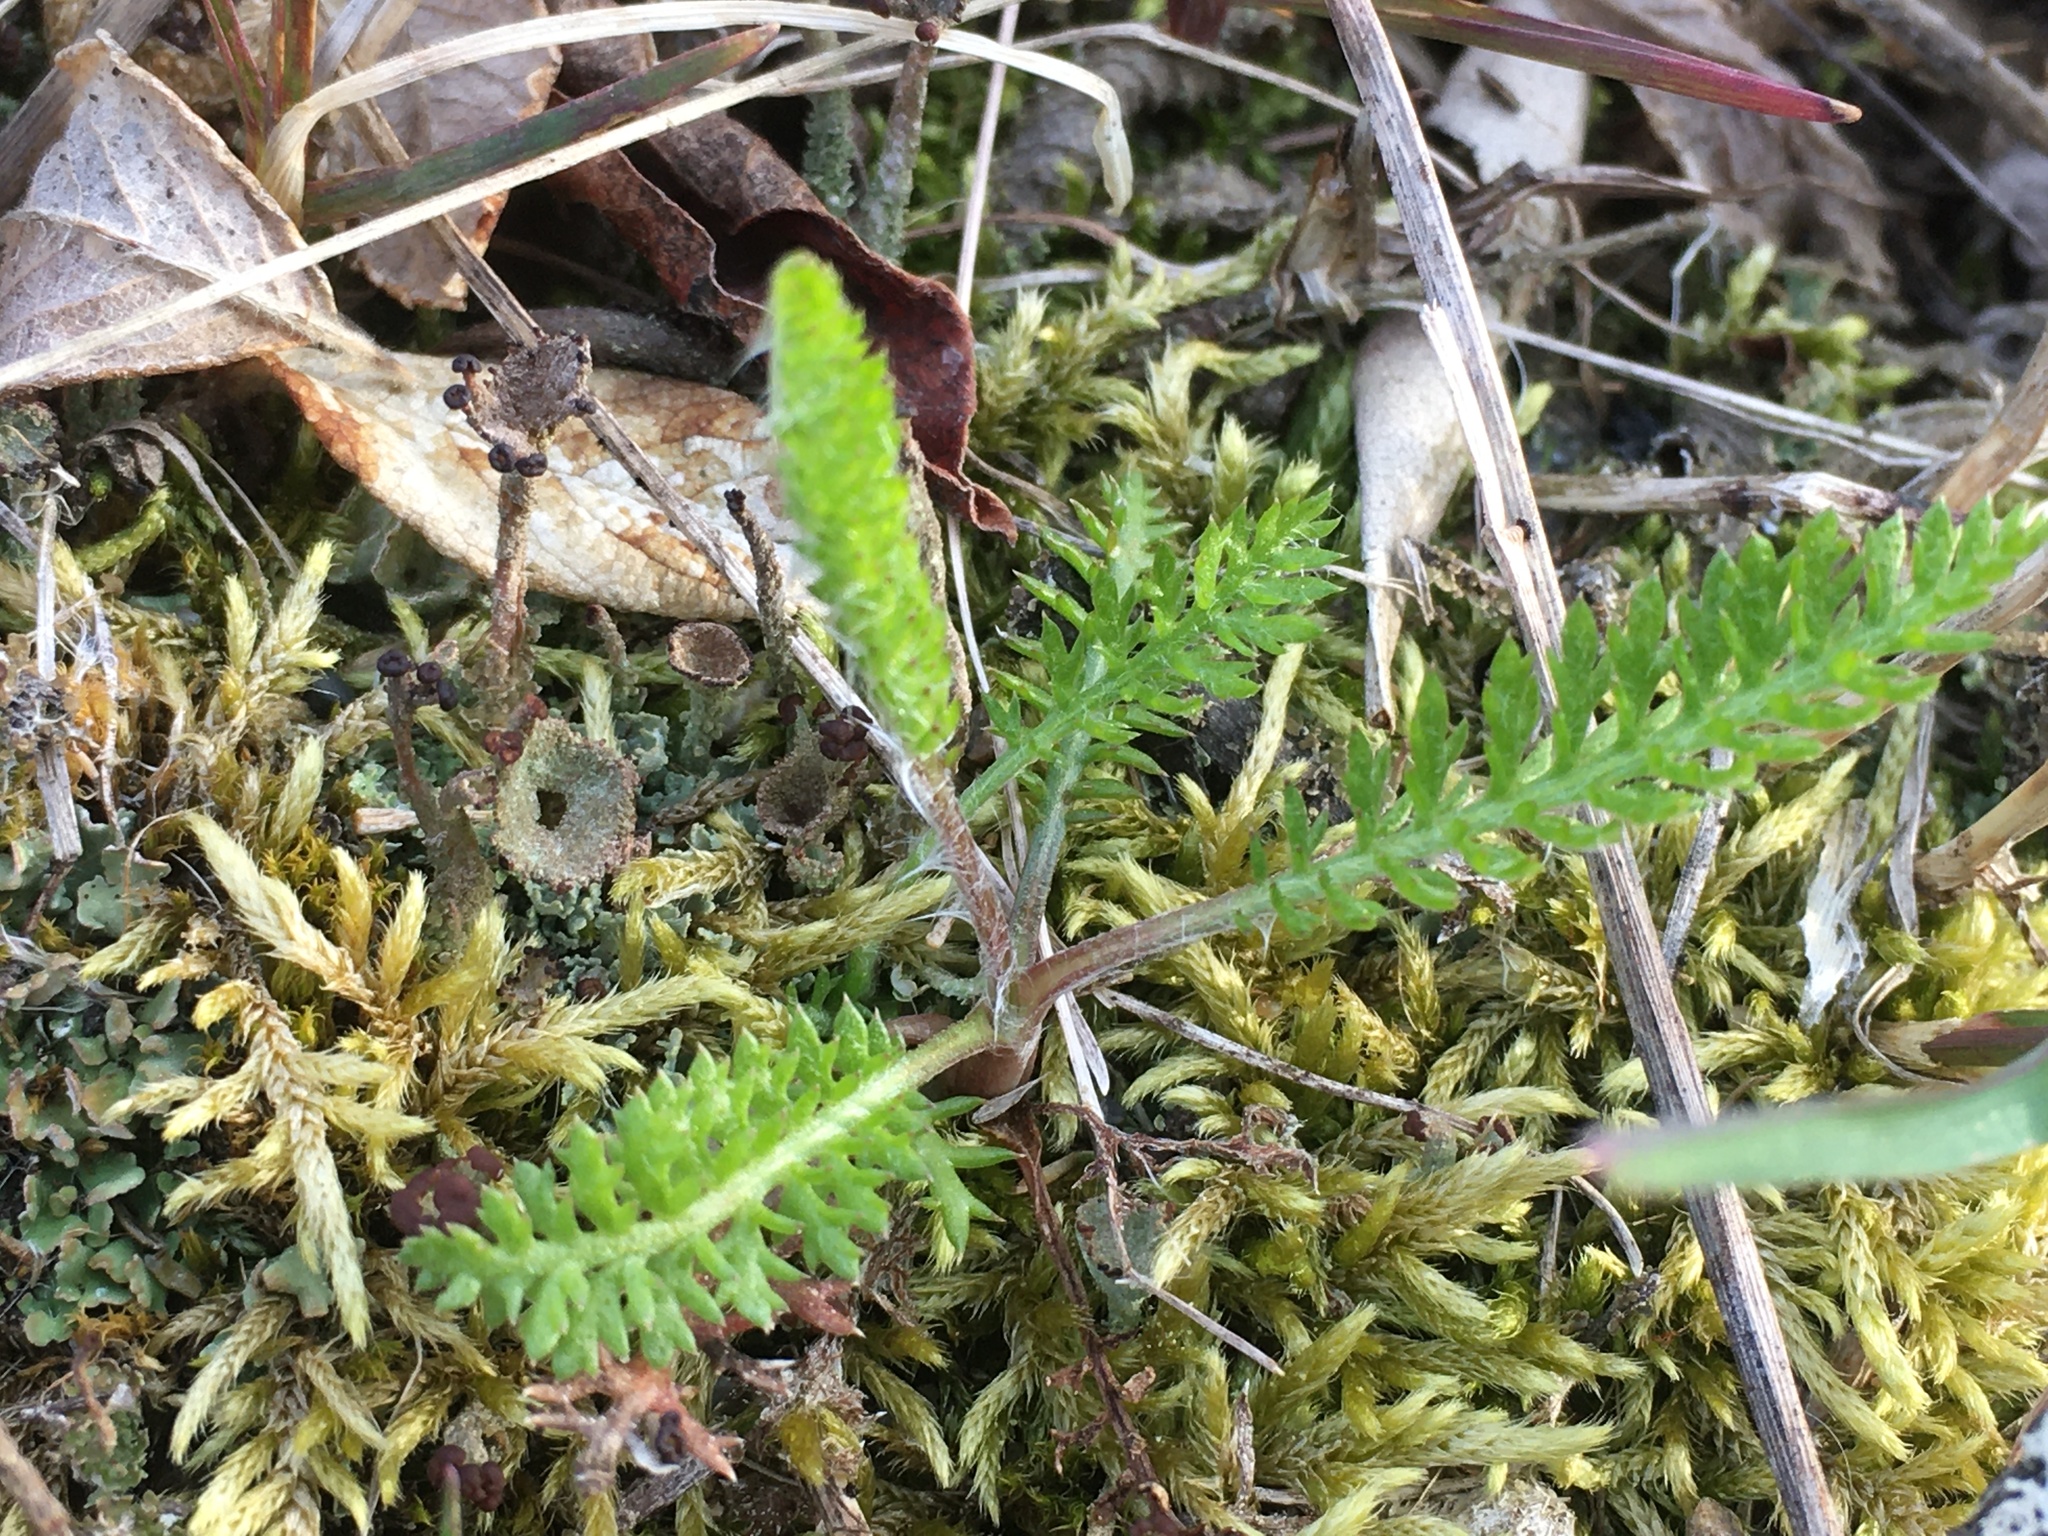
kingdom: Plantae
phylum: Tracheophyta
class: Magnoliopsida
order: Asterales
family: Asteraceae
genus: Achillea
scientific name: Achillea millefolium
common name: Yarrow
